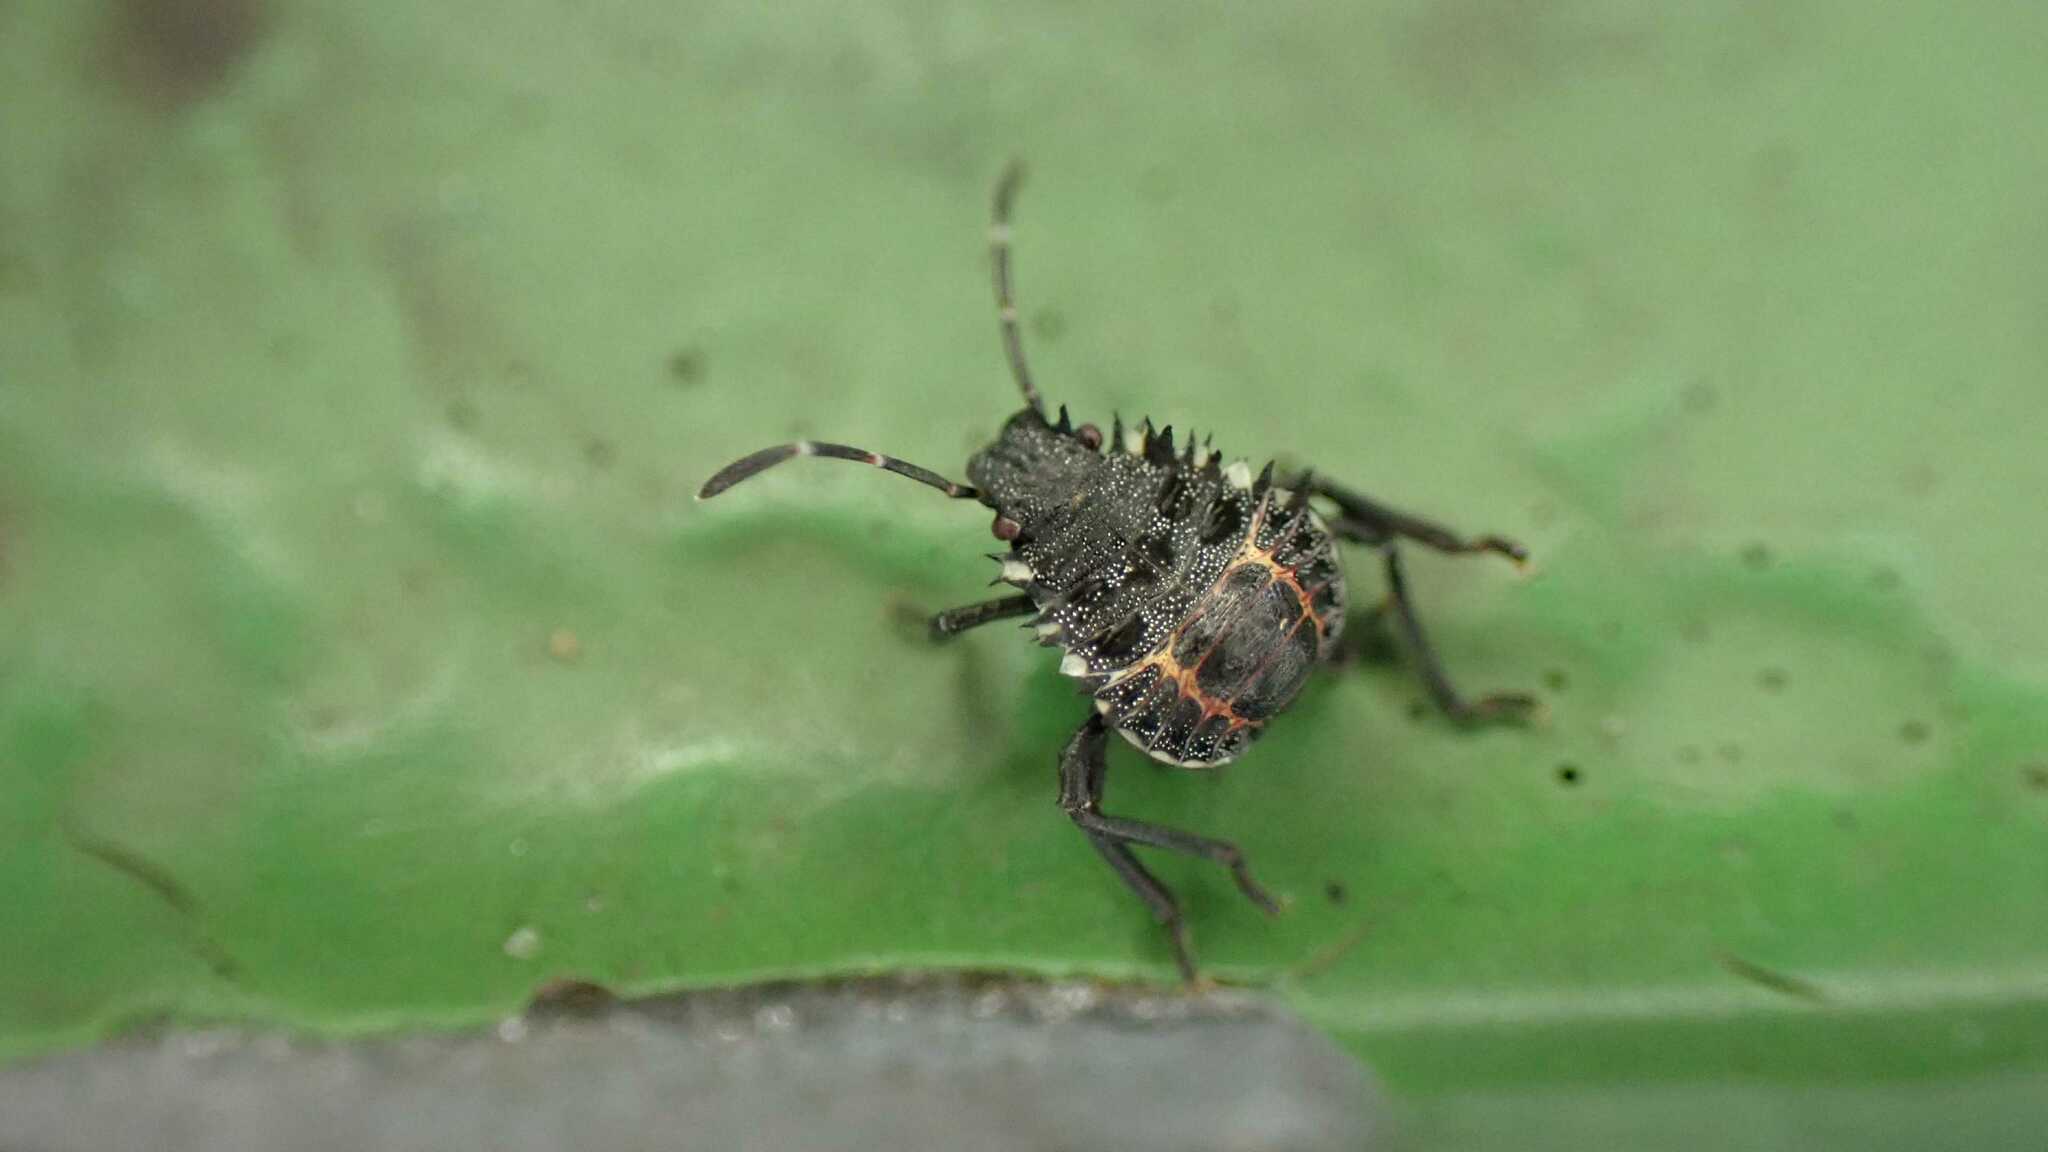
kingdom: Animalia
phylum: Arthropoda
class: Insecta
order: Hemiptera
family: Pentatomidae
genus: Halyomorpha
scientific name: Halyomorpha halys
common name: Brown marmorated stink bug
